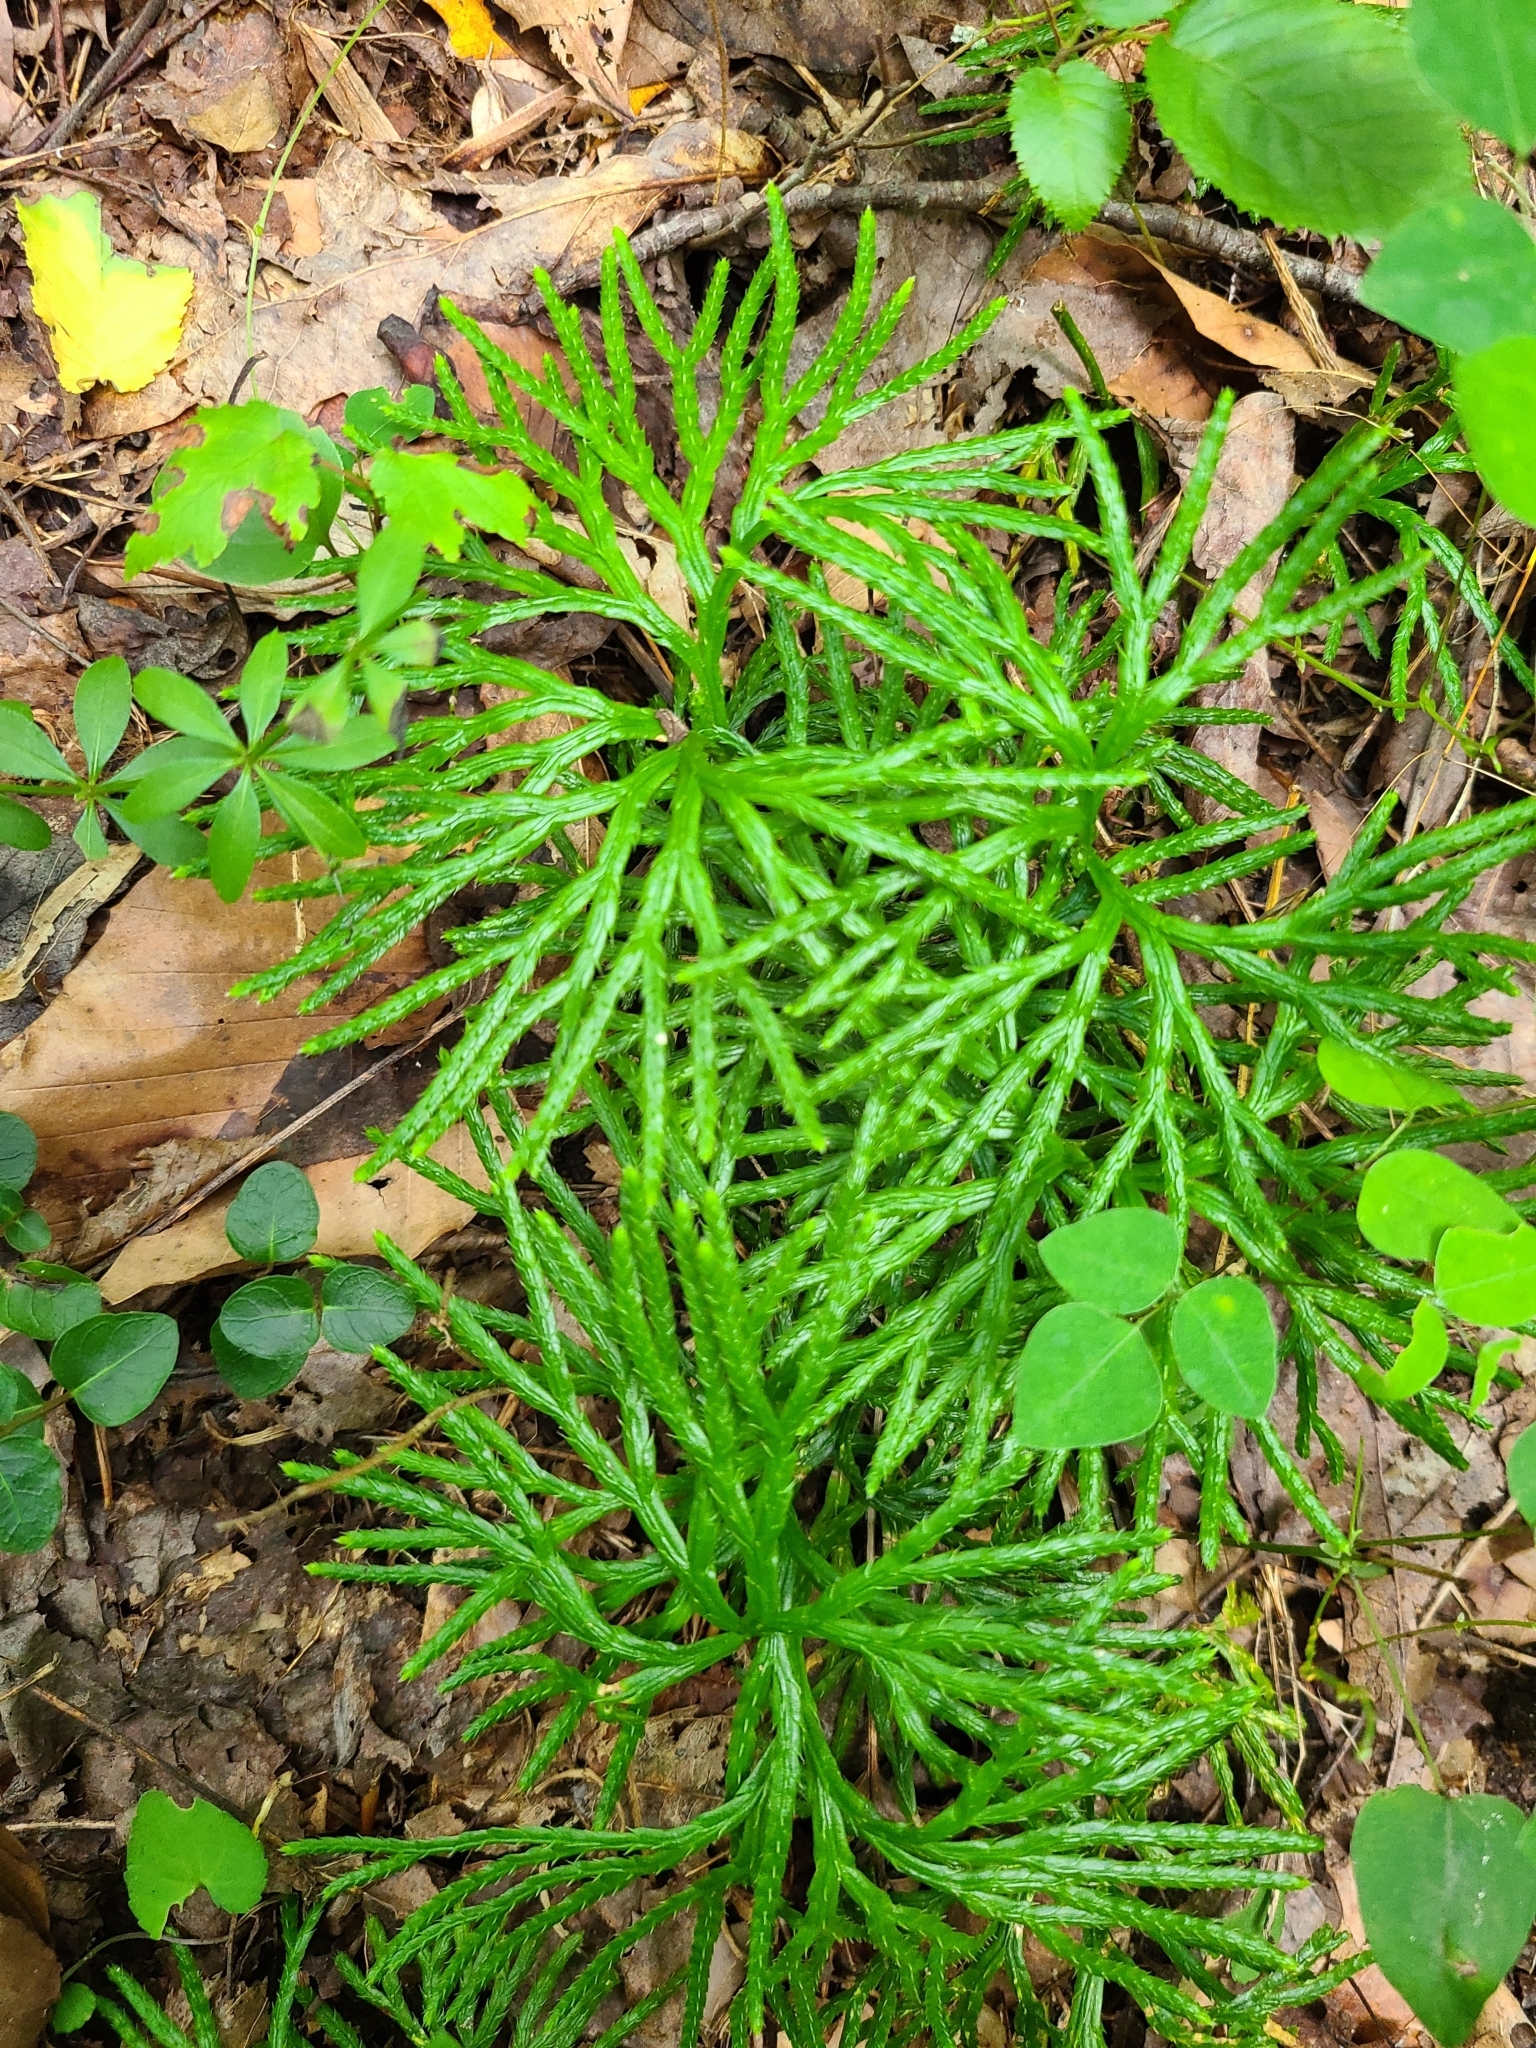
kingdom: Plantae
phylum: Tracheophyta
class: Lycopodiopsida
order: Lycopodiales
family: Lycopodiaceae
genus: Diphasiastrum
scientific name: Diphasiastrum digitatum
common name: Southern running-pine
